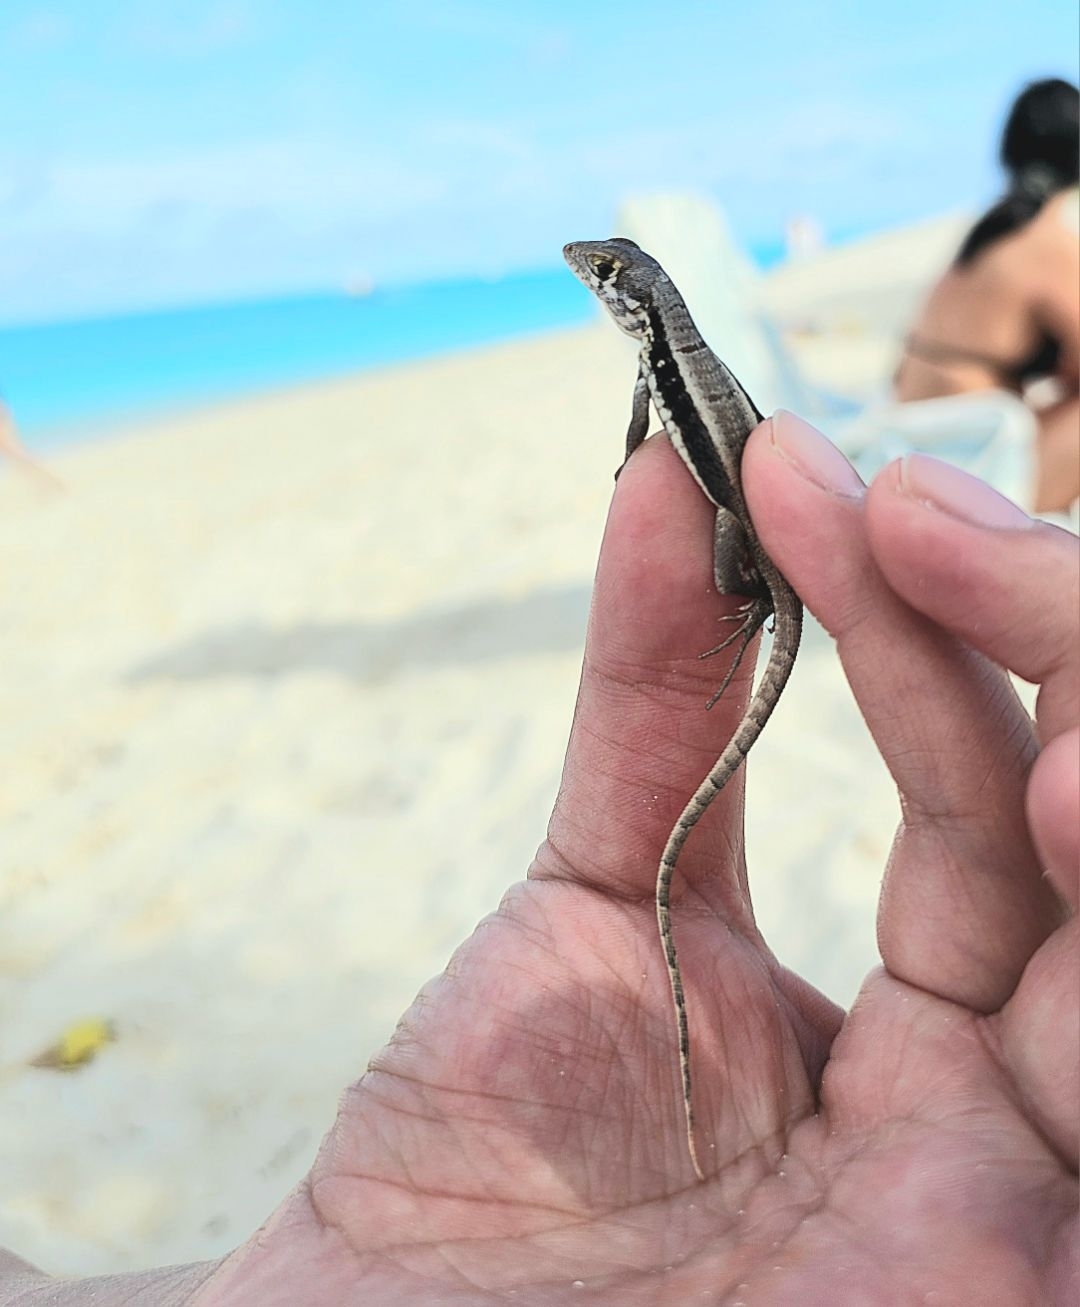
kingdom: Animalia
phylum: Chordata
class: Squamata
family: Leiocephalidae
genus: Leiocephalus
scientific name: Leiocephalus psammodromus
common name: Bastion cay curlytail lizard
